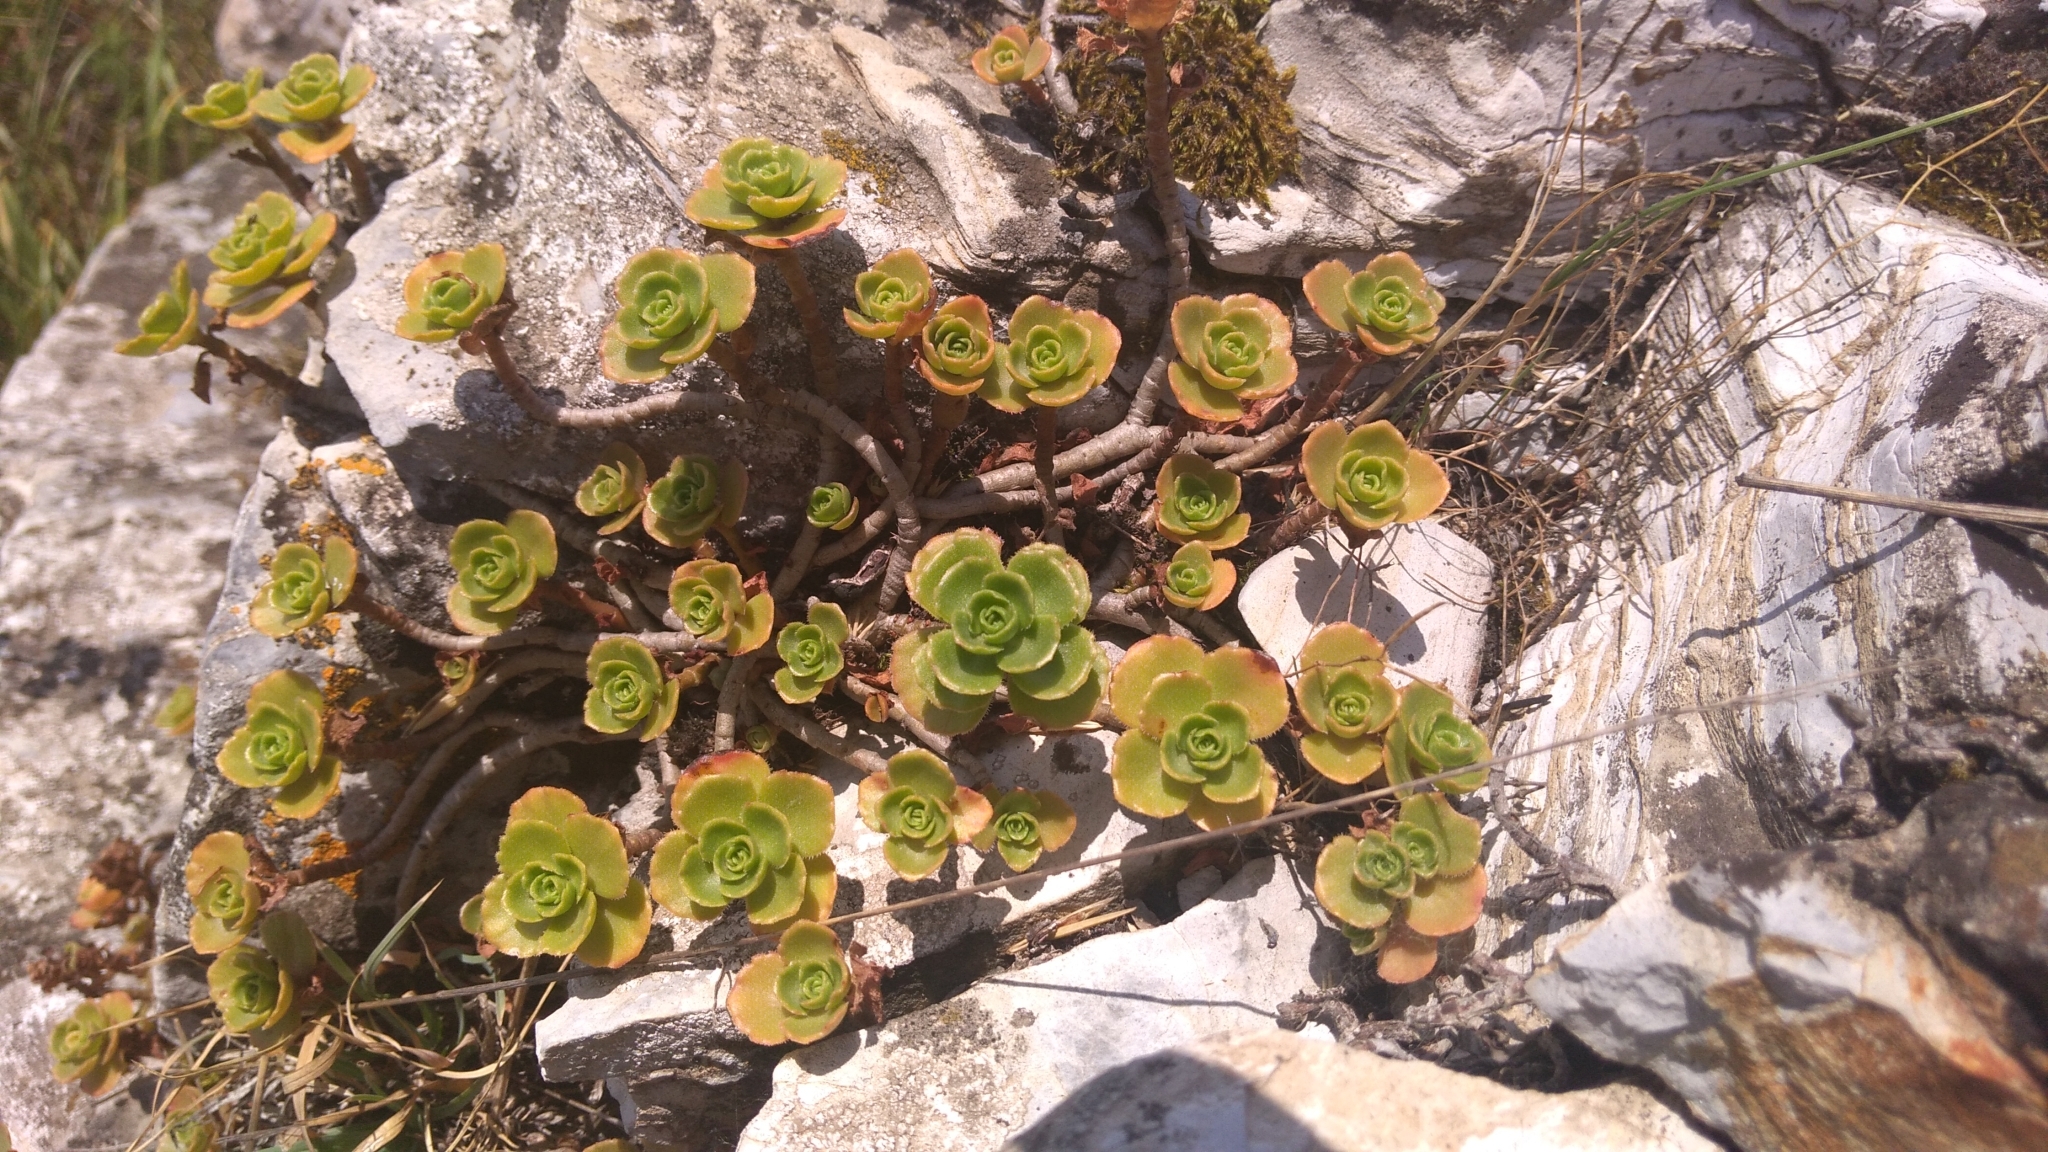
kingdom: Plantae
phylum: Tracheophyta
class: Magnoliopsida
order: Saxifragales
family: Crassulaceae
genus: Phedimus
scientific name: Phedimus spurius
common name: Caucasian stonecrop
